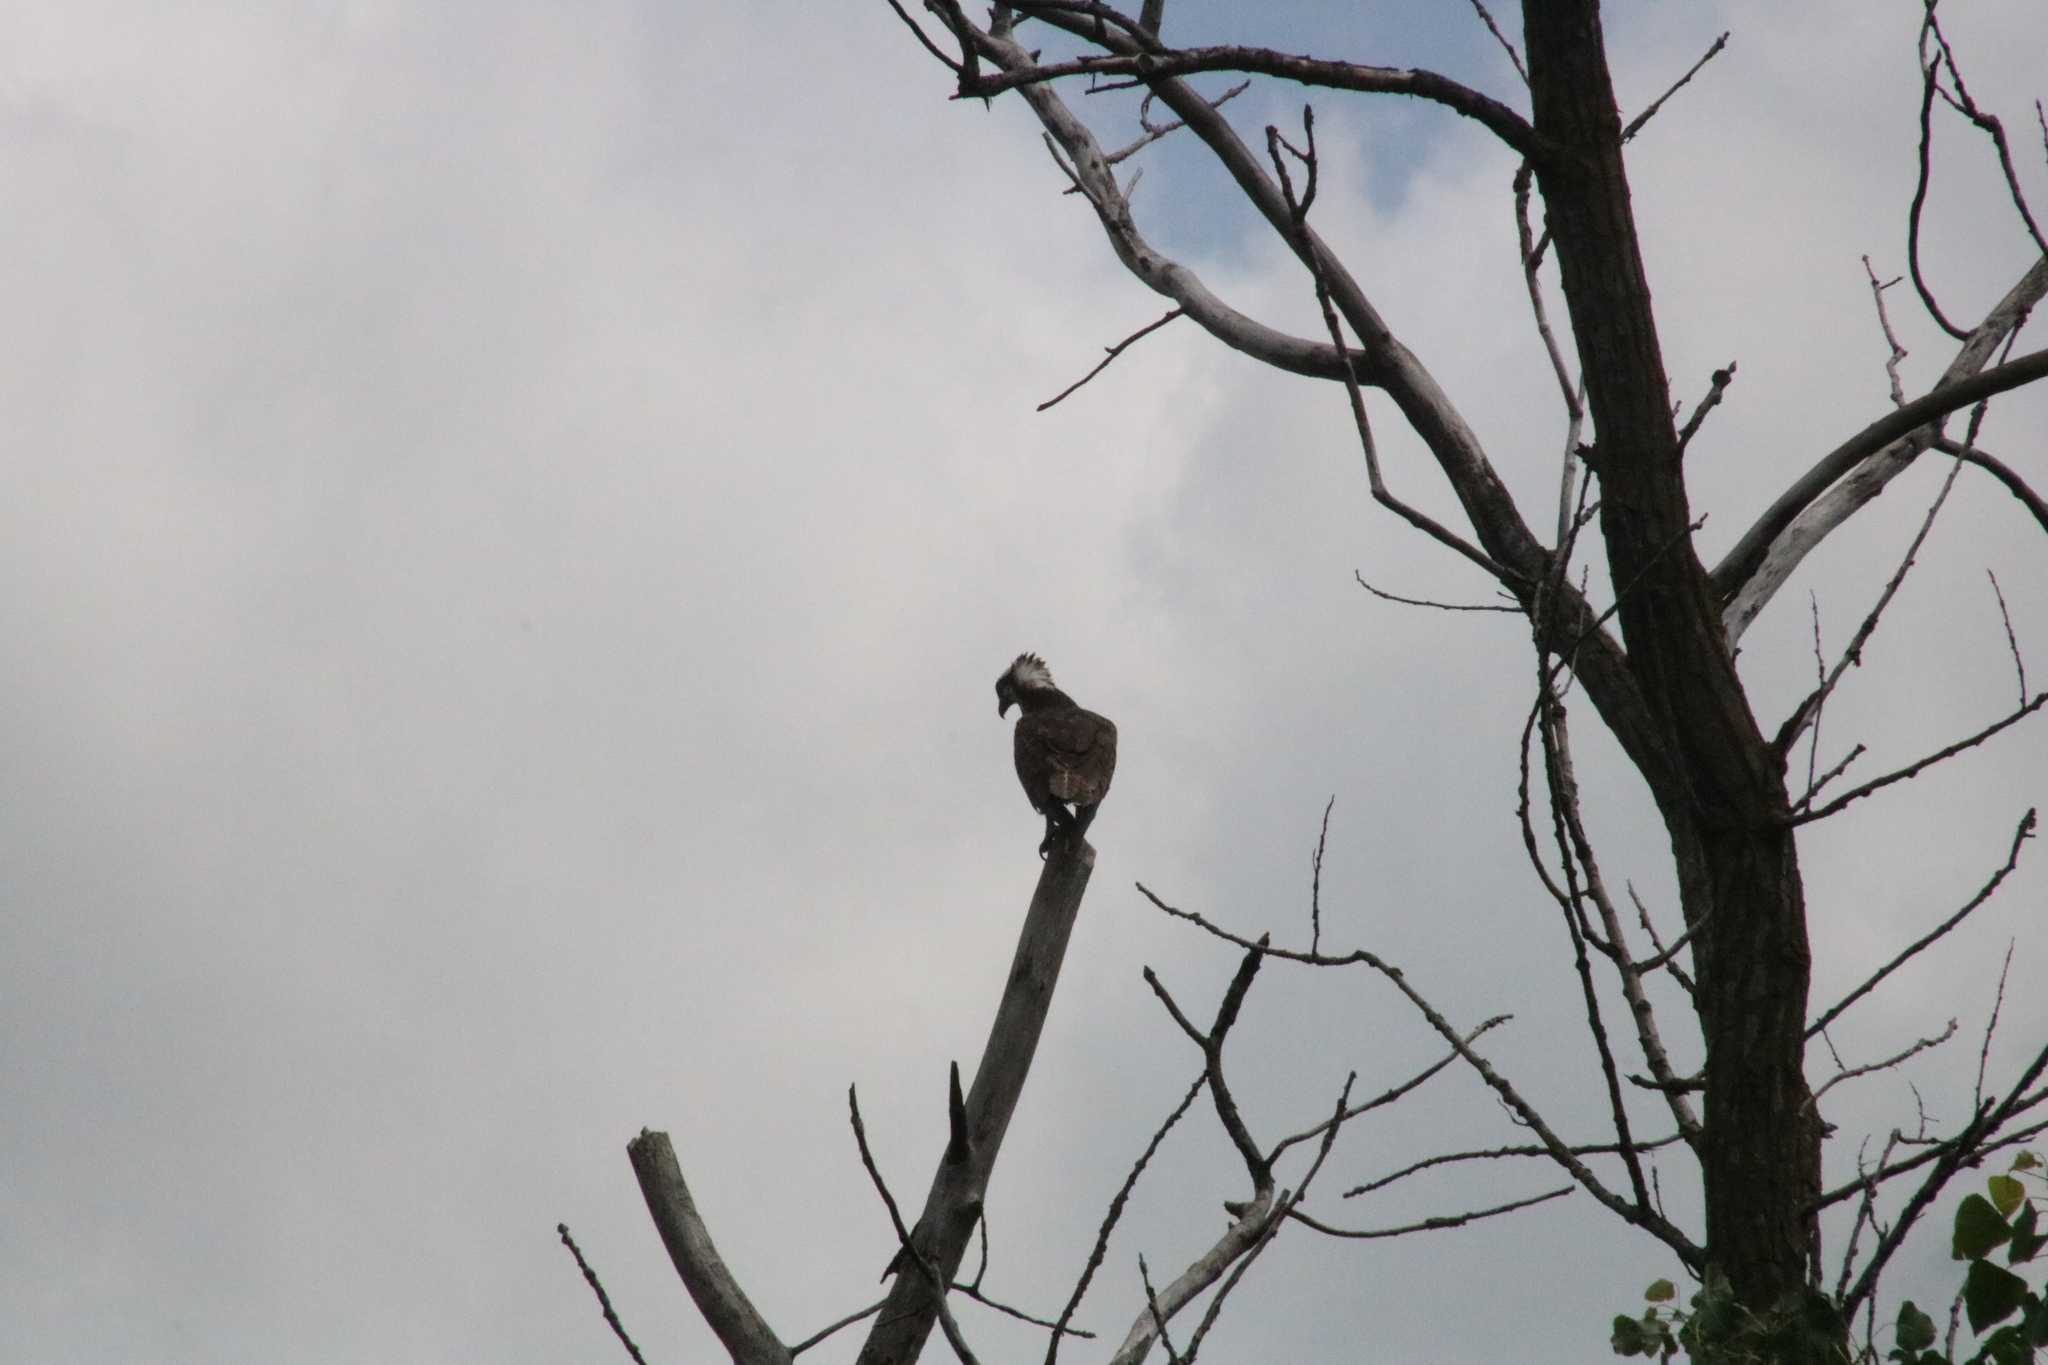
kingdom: Animalia
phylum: Chordata
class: Aves
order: Accipitriformes
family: Pandionidae
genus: Pandion
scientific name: Pandion haliaetus
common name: Osprey
